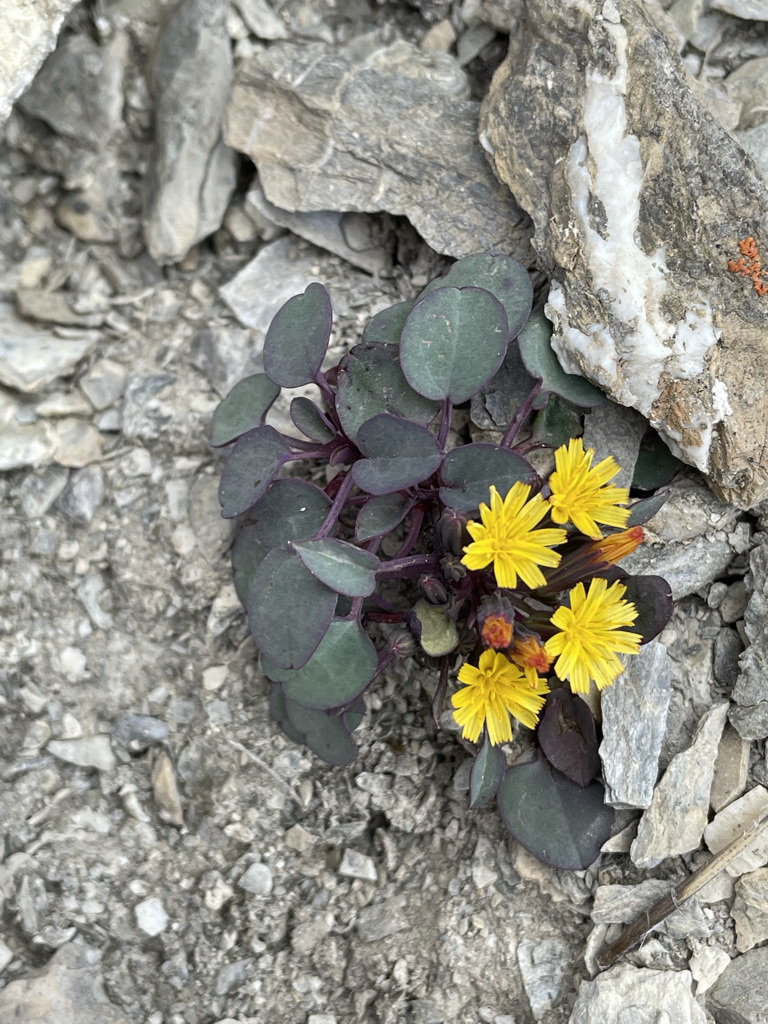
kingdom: Plantae
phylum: Tracheophyta
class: Magnoliopsida
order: Asterales
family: Asteraceae
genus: Askellia
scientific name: Askellia pygmaea
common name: Dwarf alpine hawksbeard
